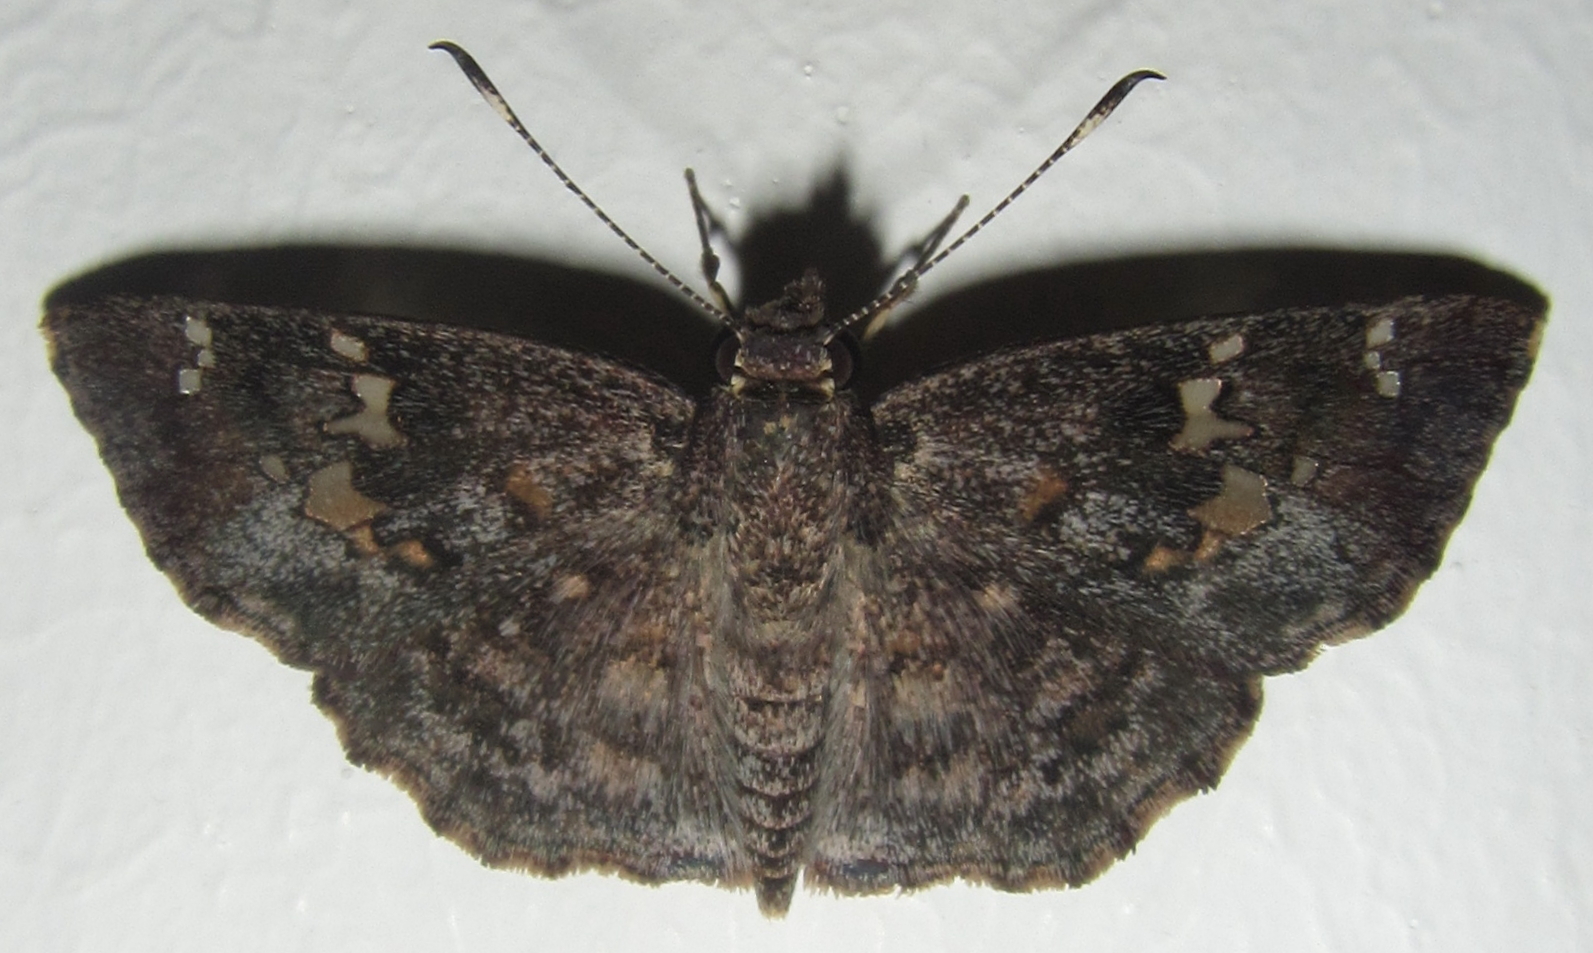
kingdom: Animalia
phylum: Arthropoda
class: Insecta
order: Lepidoptera
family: Hesperiidae
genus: Sarangesa
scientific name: Sarangesa seineri
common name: Dark elfin
